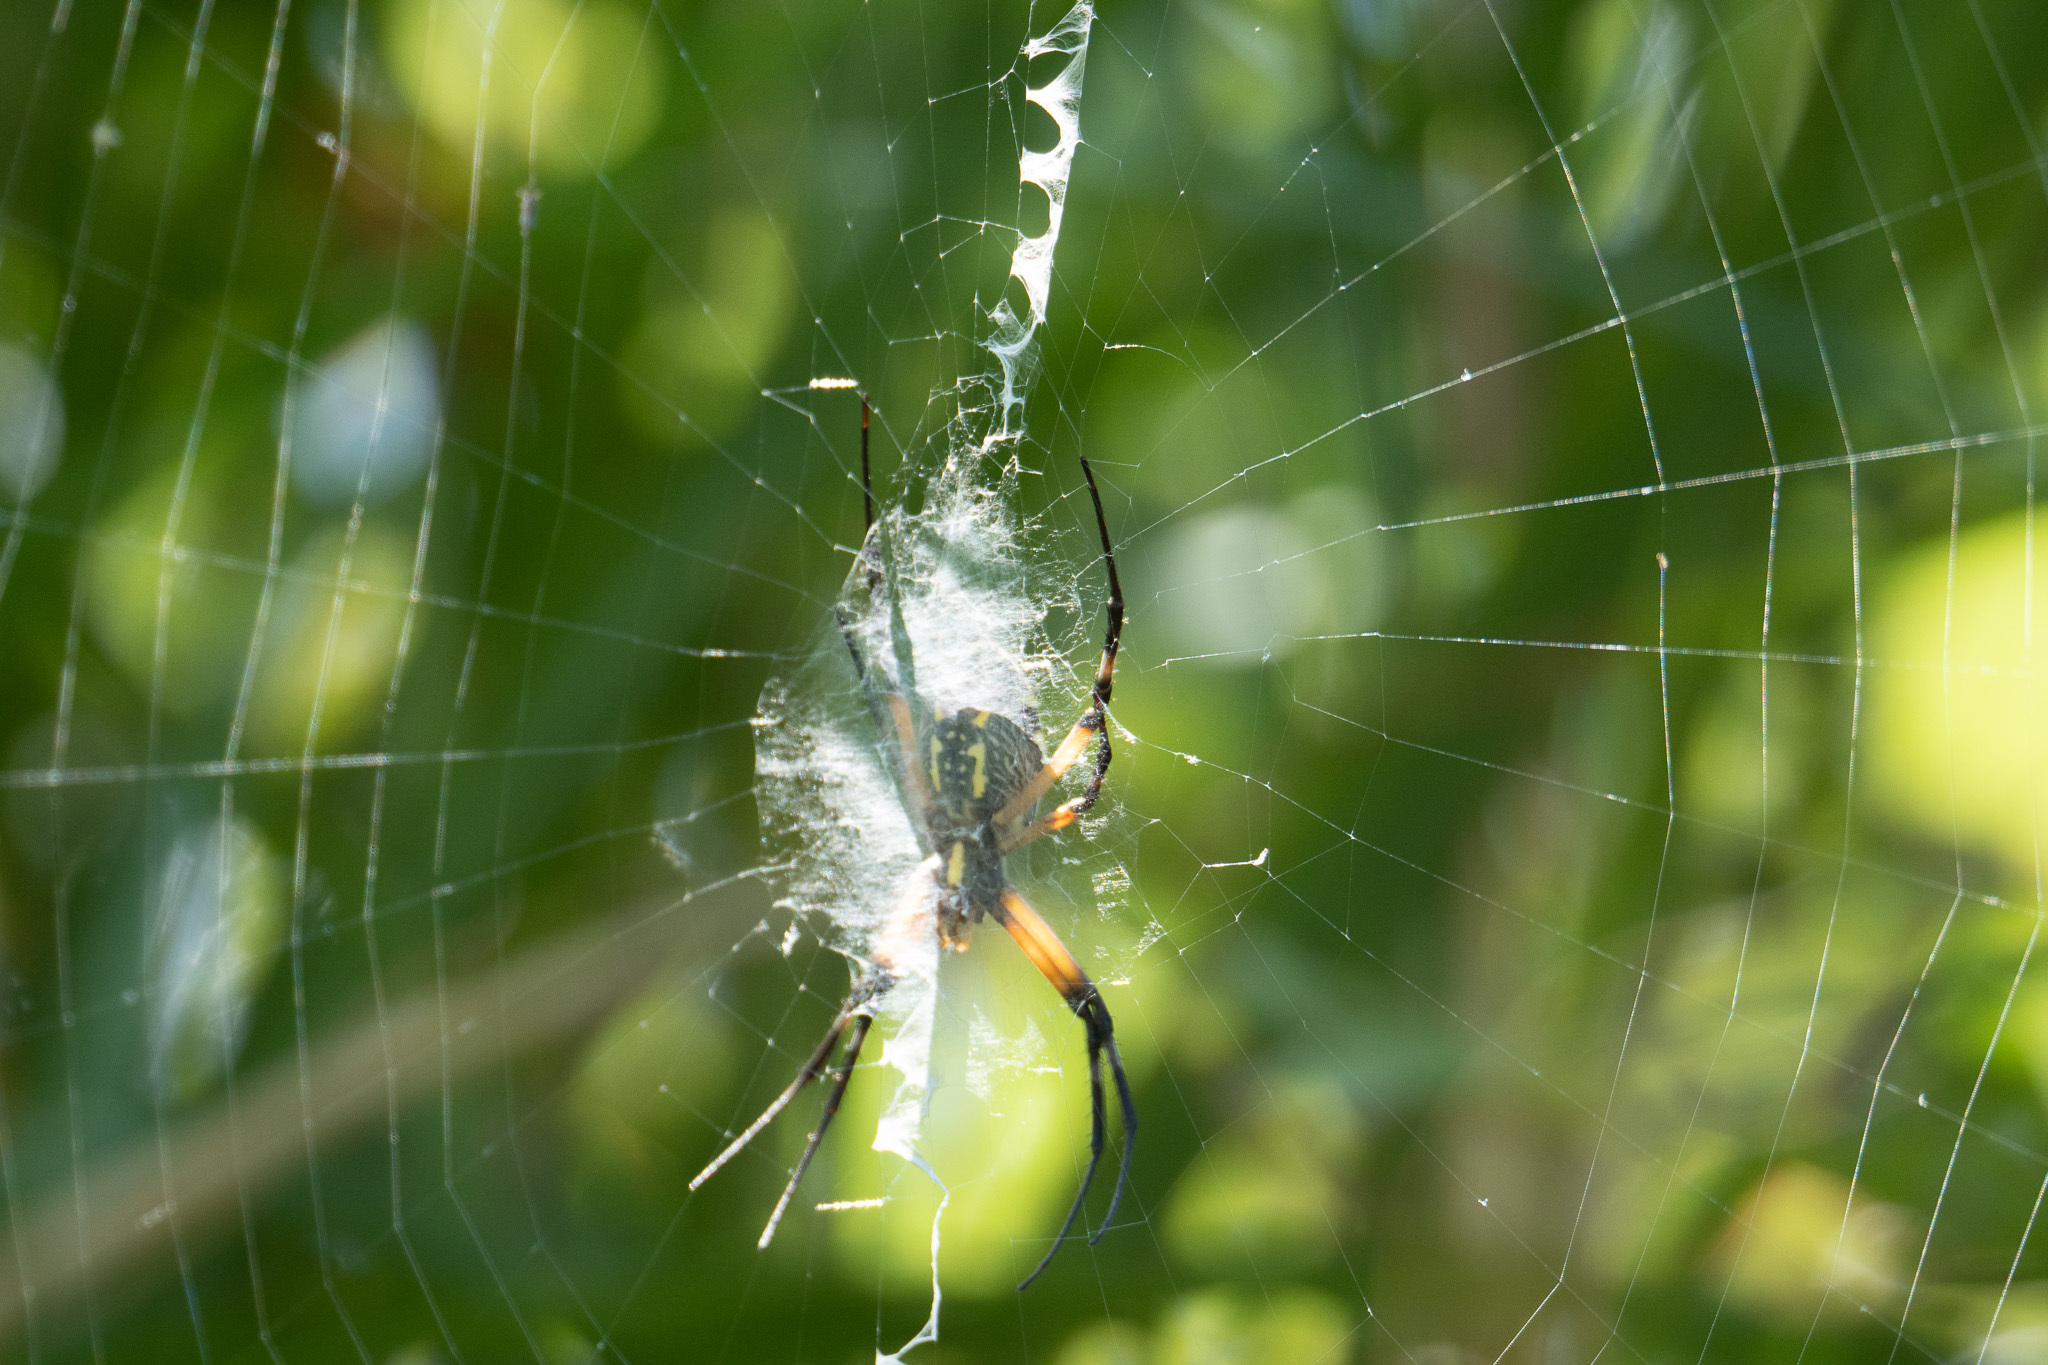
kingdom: Animalia
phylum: Arthropoda
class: Arachnida
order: Araneae
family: Araneidae
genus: Argiope
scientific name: Argiope aurantia
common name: Orb weavers
